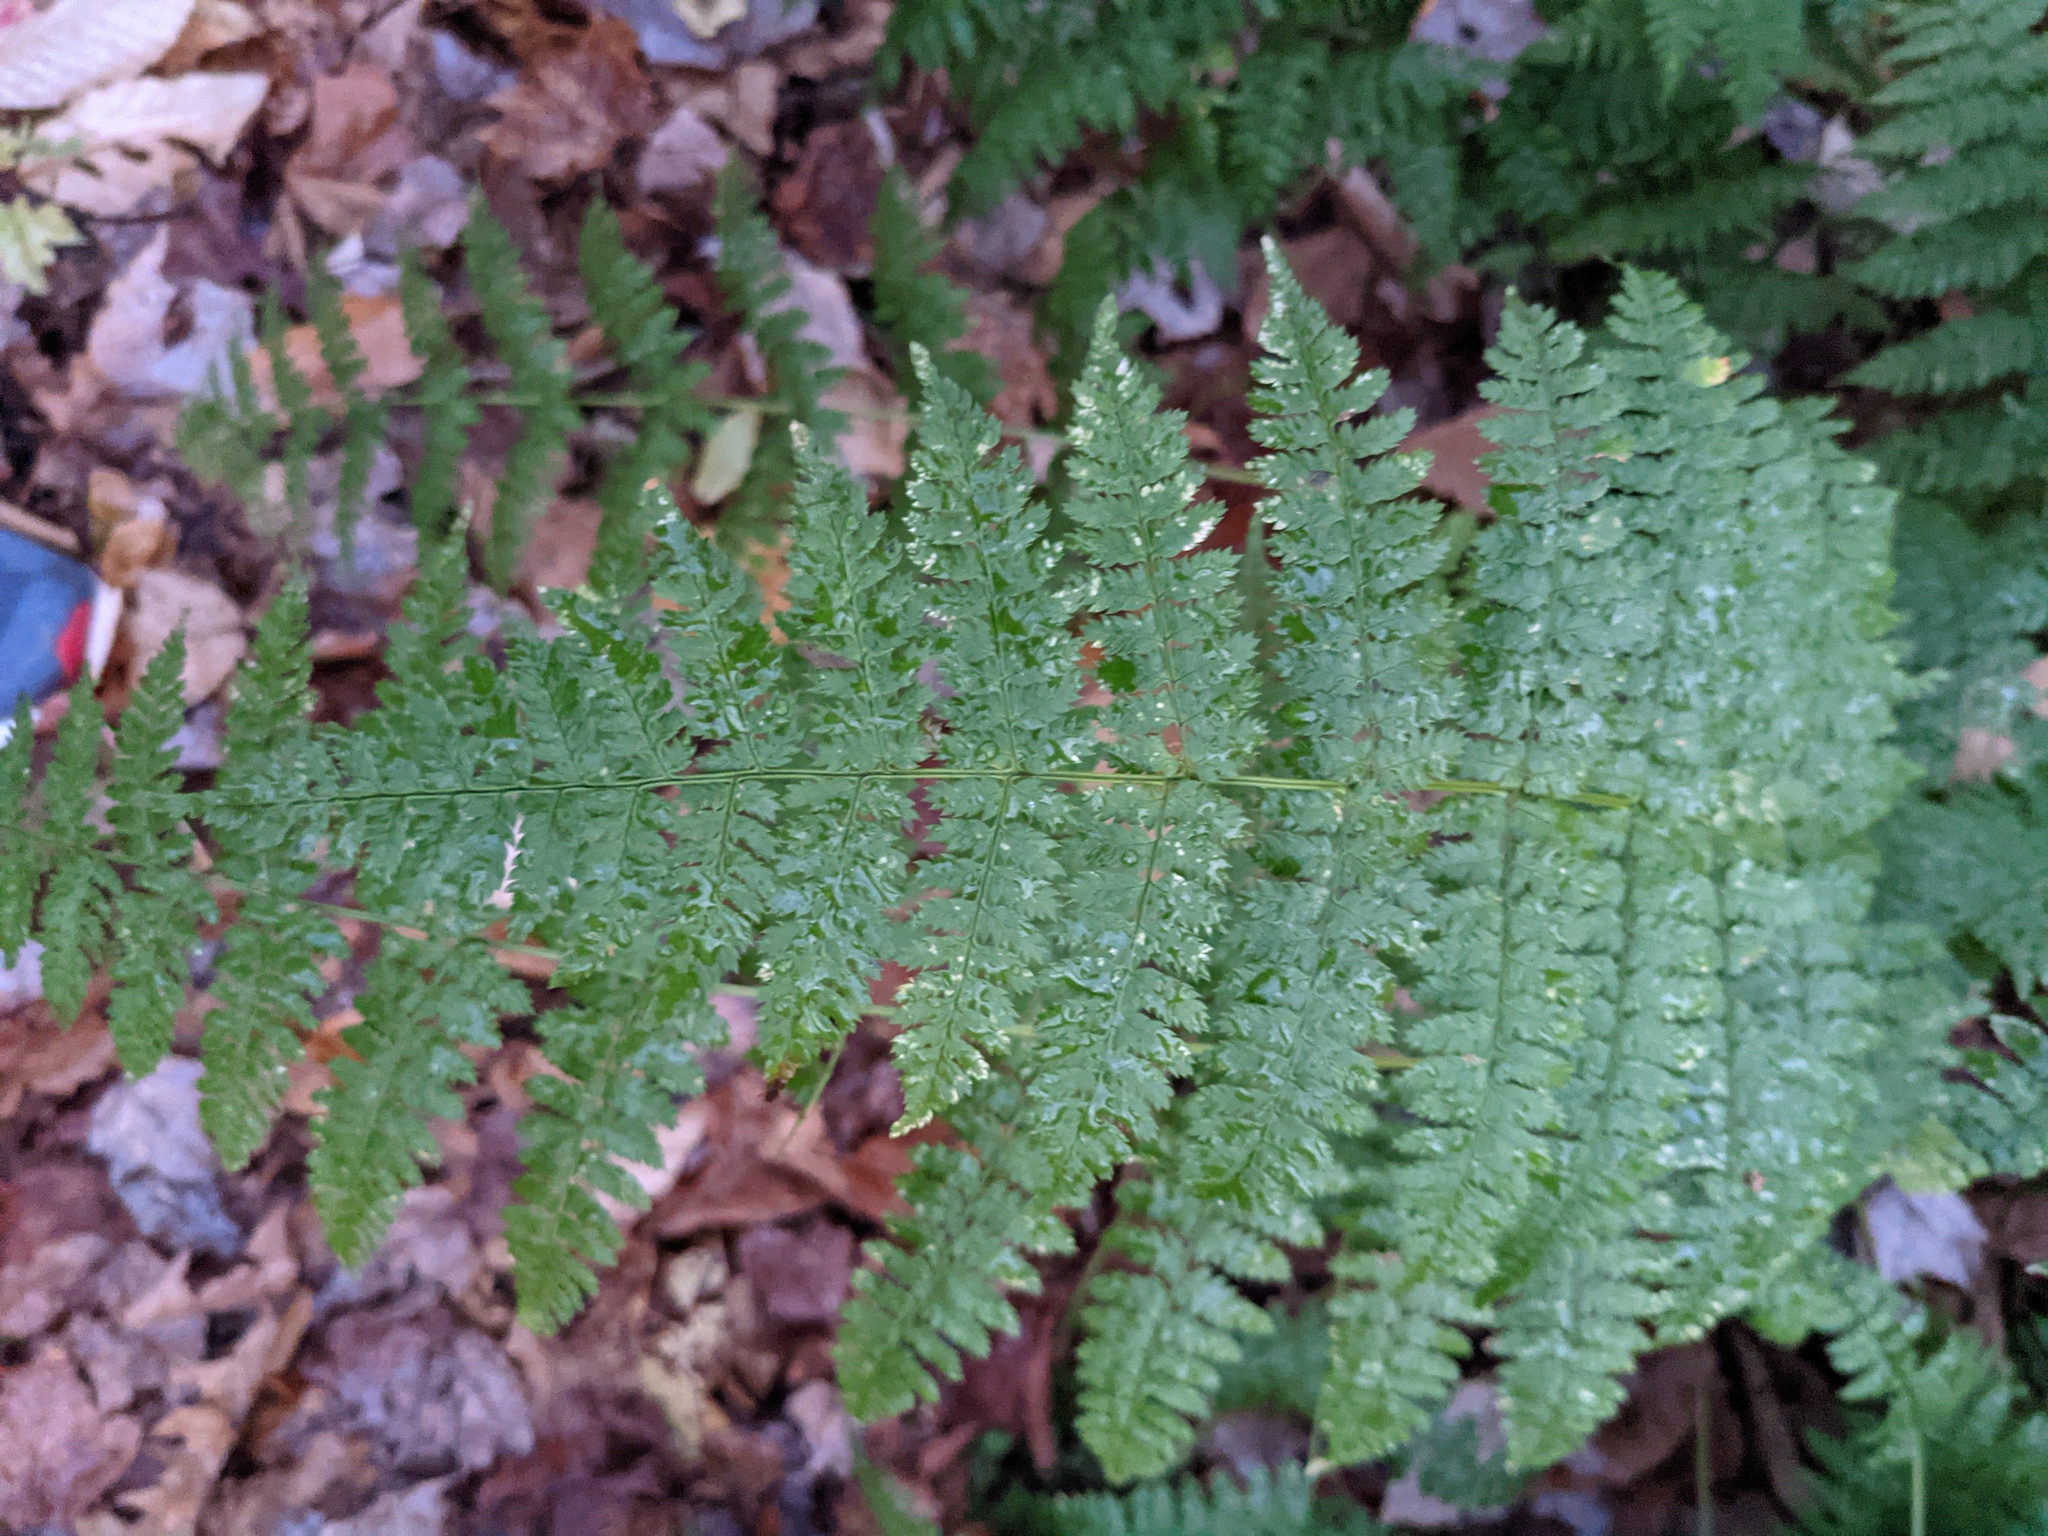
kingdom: Plantae
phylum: Tracheophyta
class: Polypodiopsida
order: Polypodiales
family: Dryopteridaceae
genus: Dryopteris
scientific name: Dryopteris intermedia
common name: Evergreen wood fern
